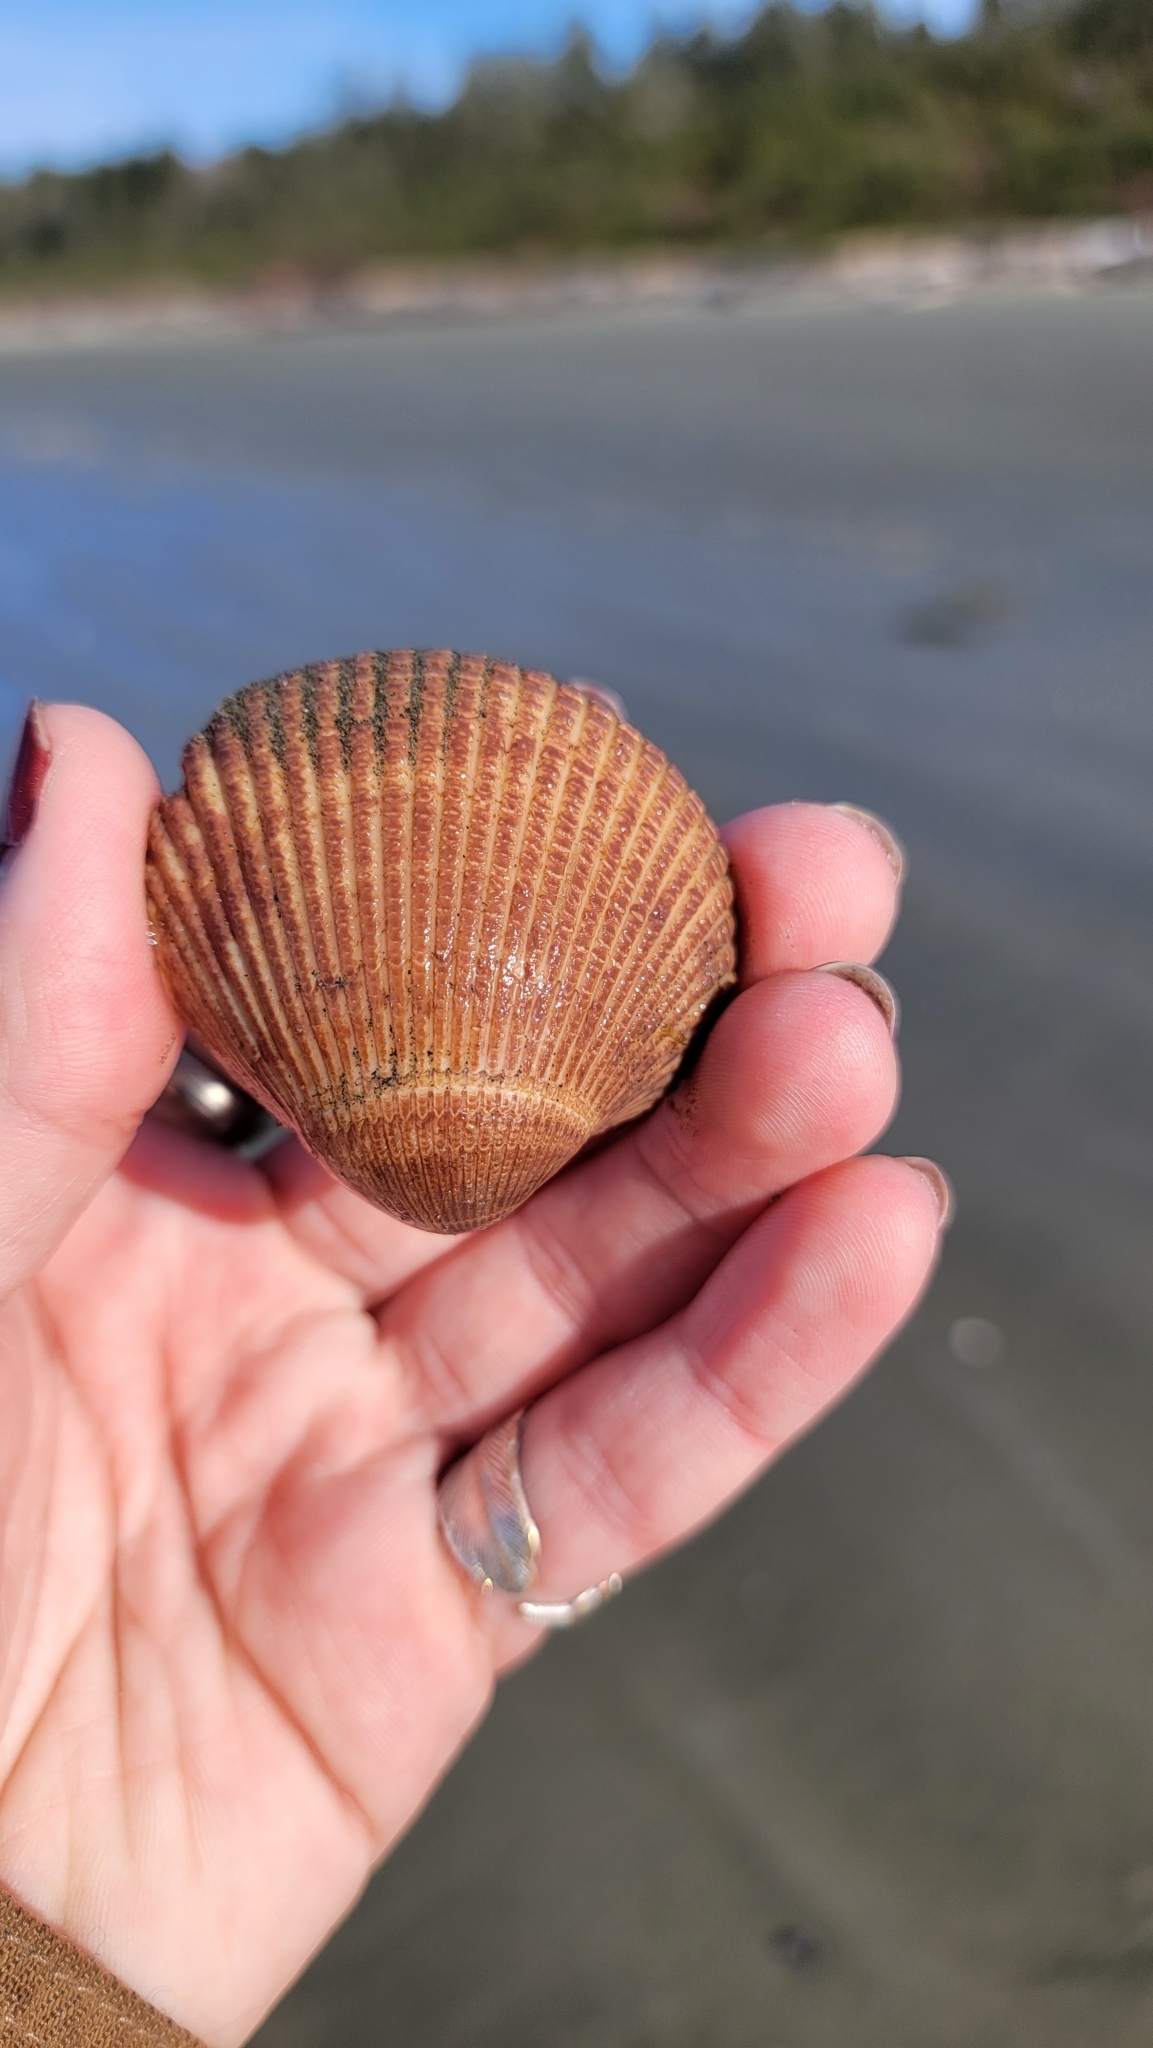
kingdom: Animalia
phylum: Mollusca
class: Bivalvia
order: Cardiida
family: Cardiidae
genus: Clinocardium
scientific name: Clinocardium nuttallii
